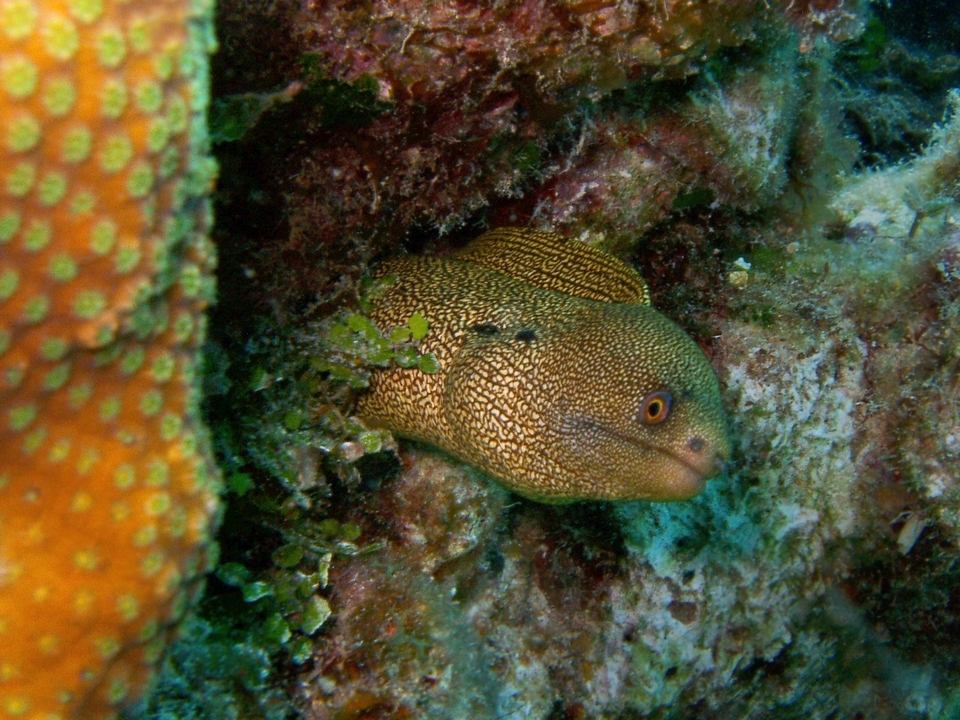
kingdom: Animalia
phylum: Chordata
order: Anguilliformes
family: Muraenidae
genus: Gymnothorax
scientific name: Gymnothorax miliaris
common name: Goldentail moray
